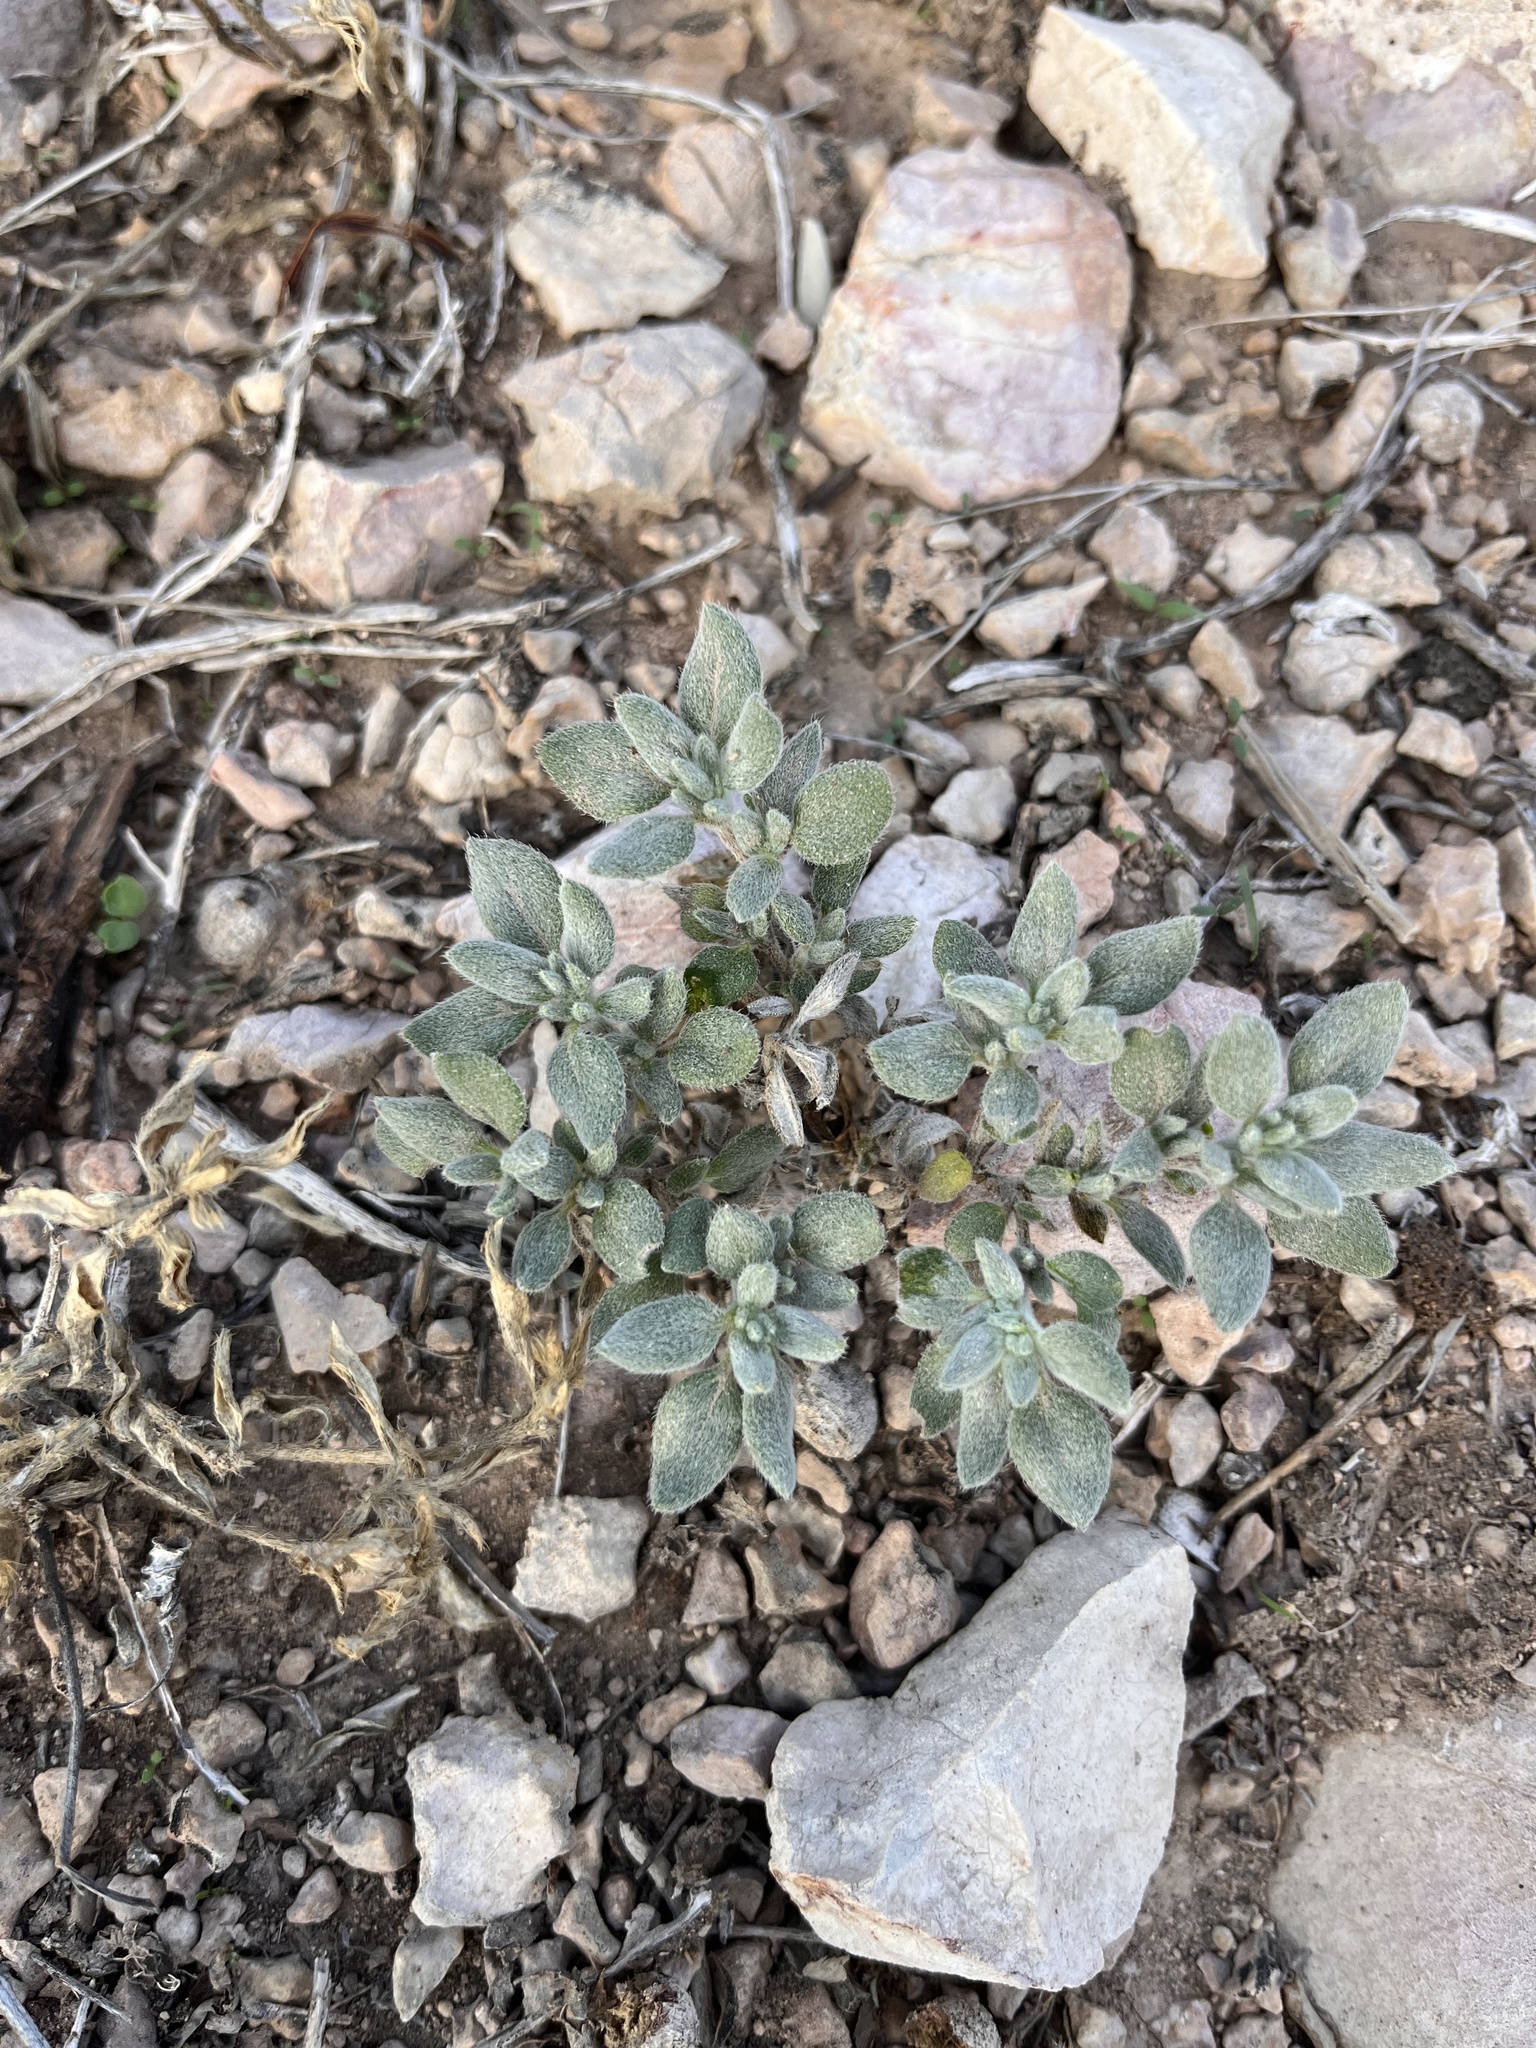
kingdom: Plantae
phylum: Tracheophyta
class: Magnoliopsida
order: Boraginales
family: Ehretiaceae
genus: Tiquilia
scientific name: Tiquilia canescens
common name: Hairy tiquilia
